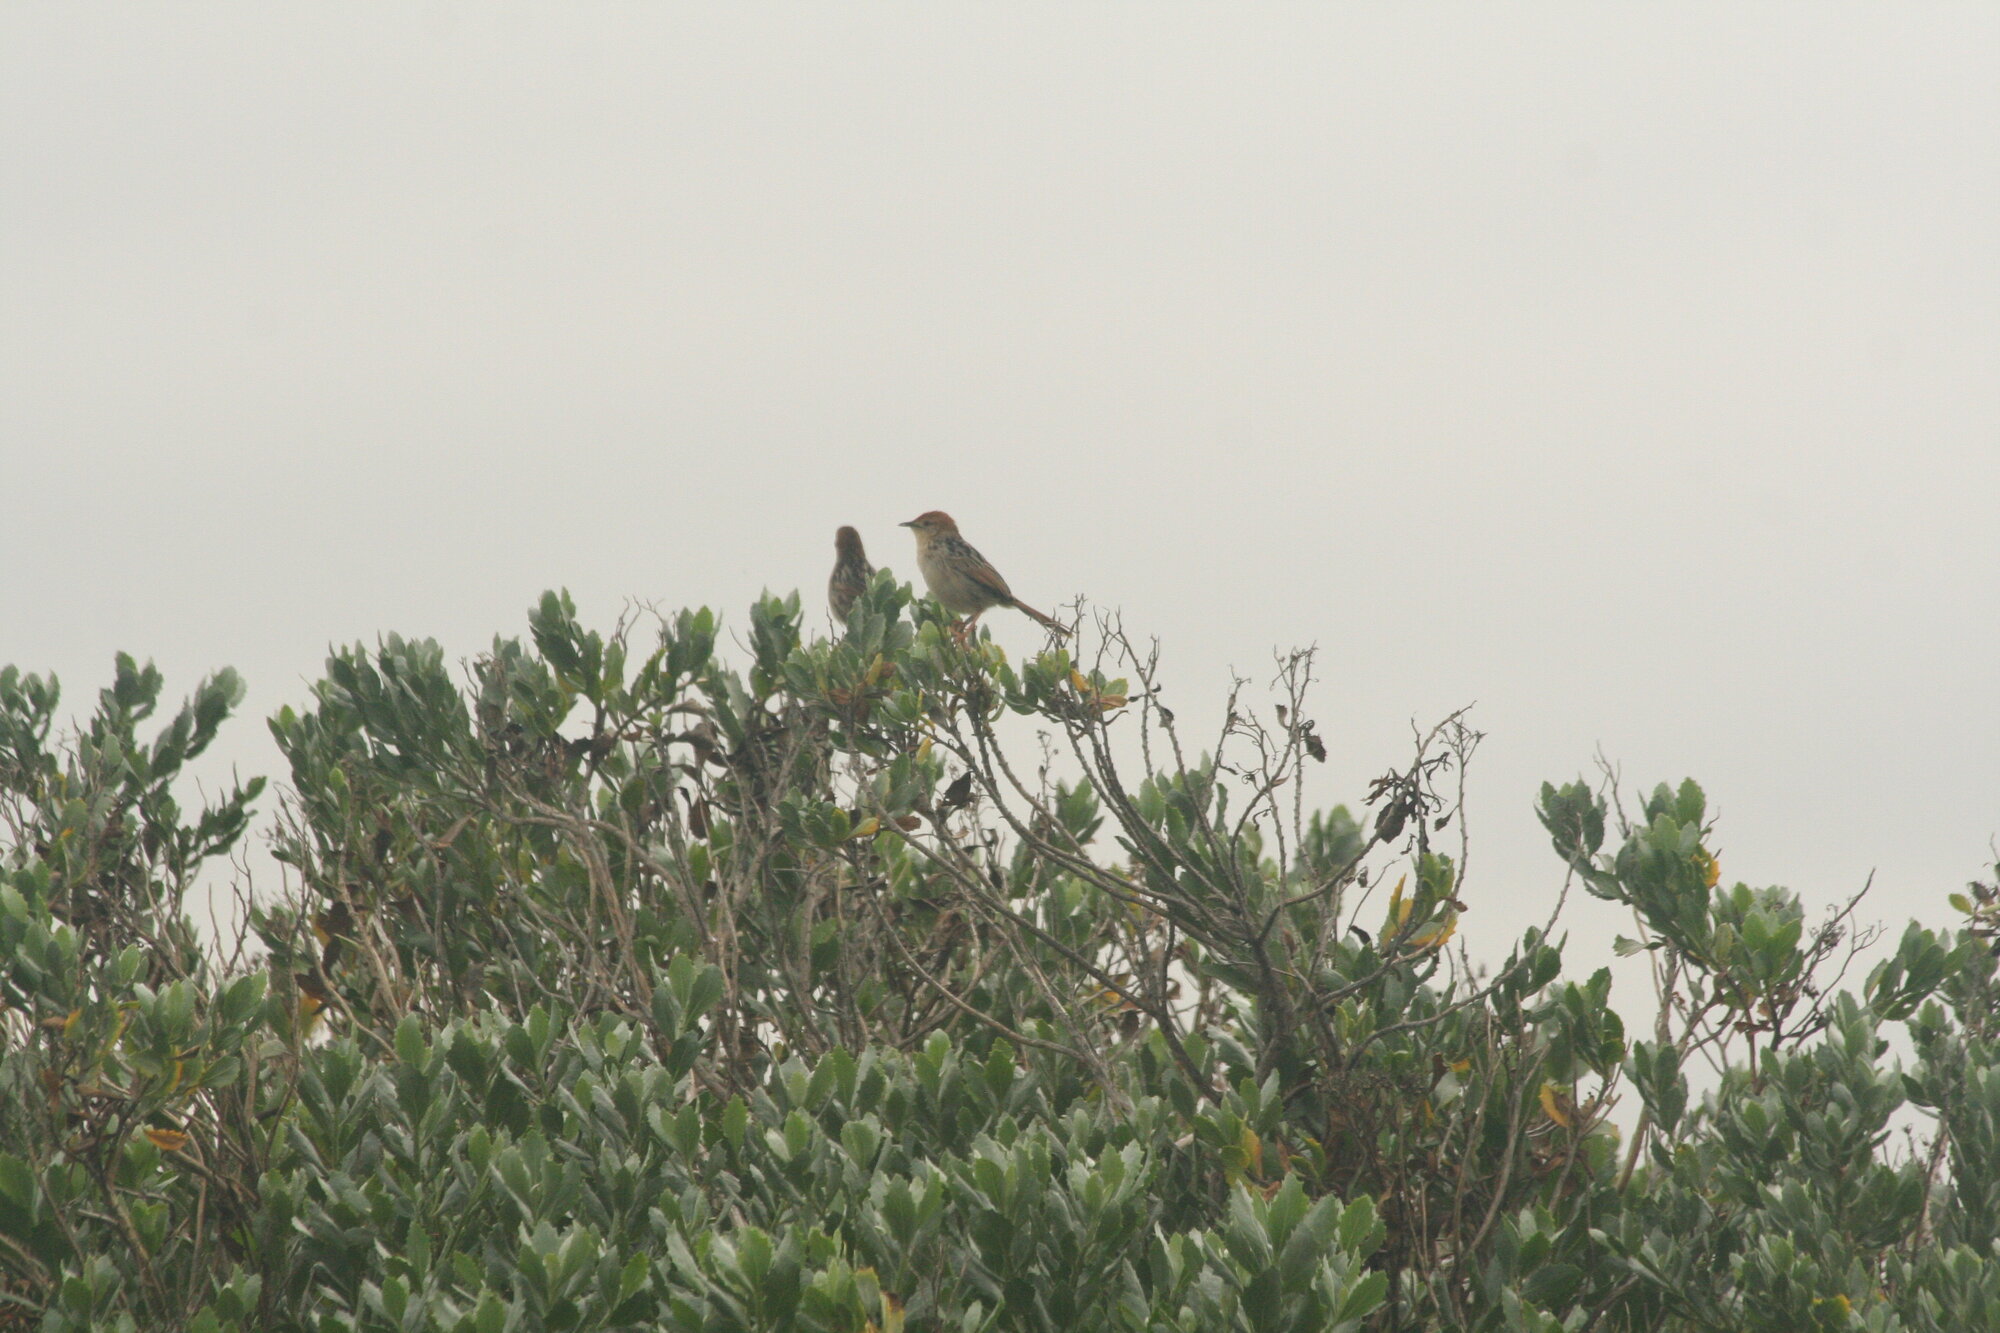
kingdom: Animalia
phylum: Chordata
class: Aves
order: Passeriformes
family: Cisticolidae
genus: Cisticola
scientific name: Cisticola tinniens
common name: Levaillant's cisticola
